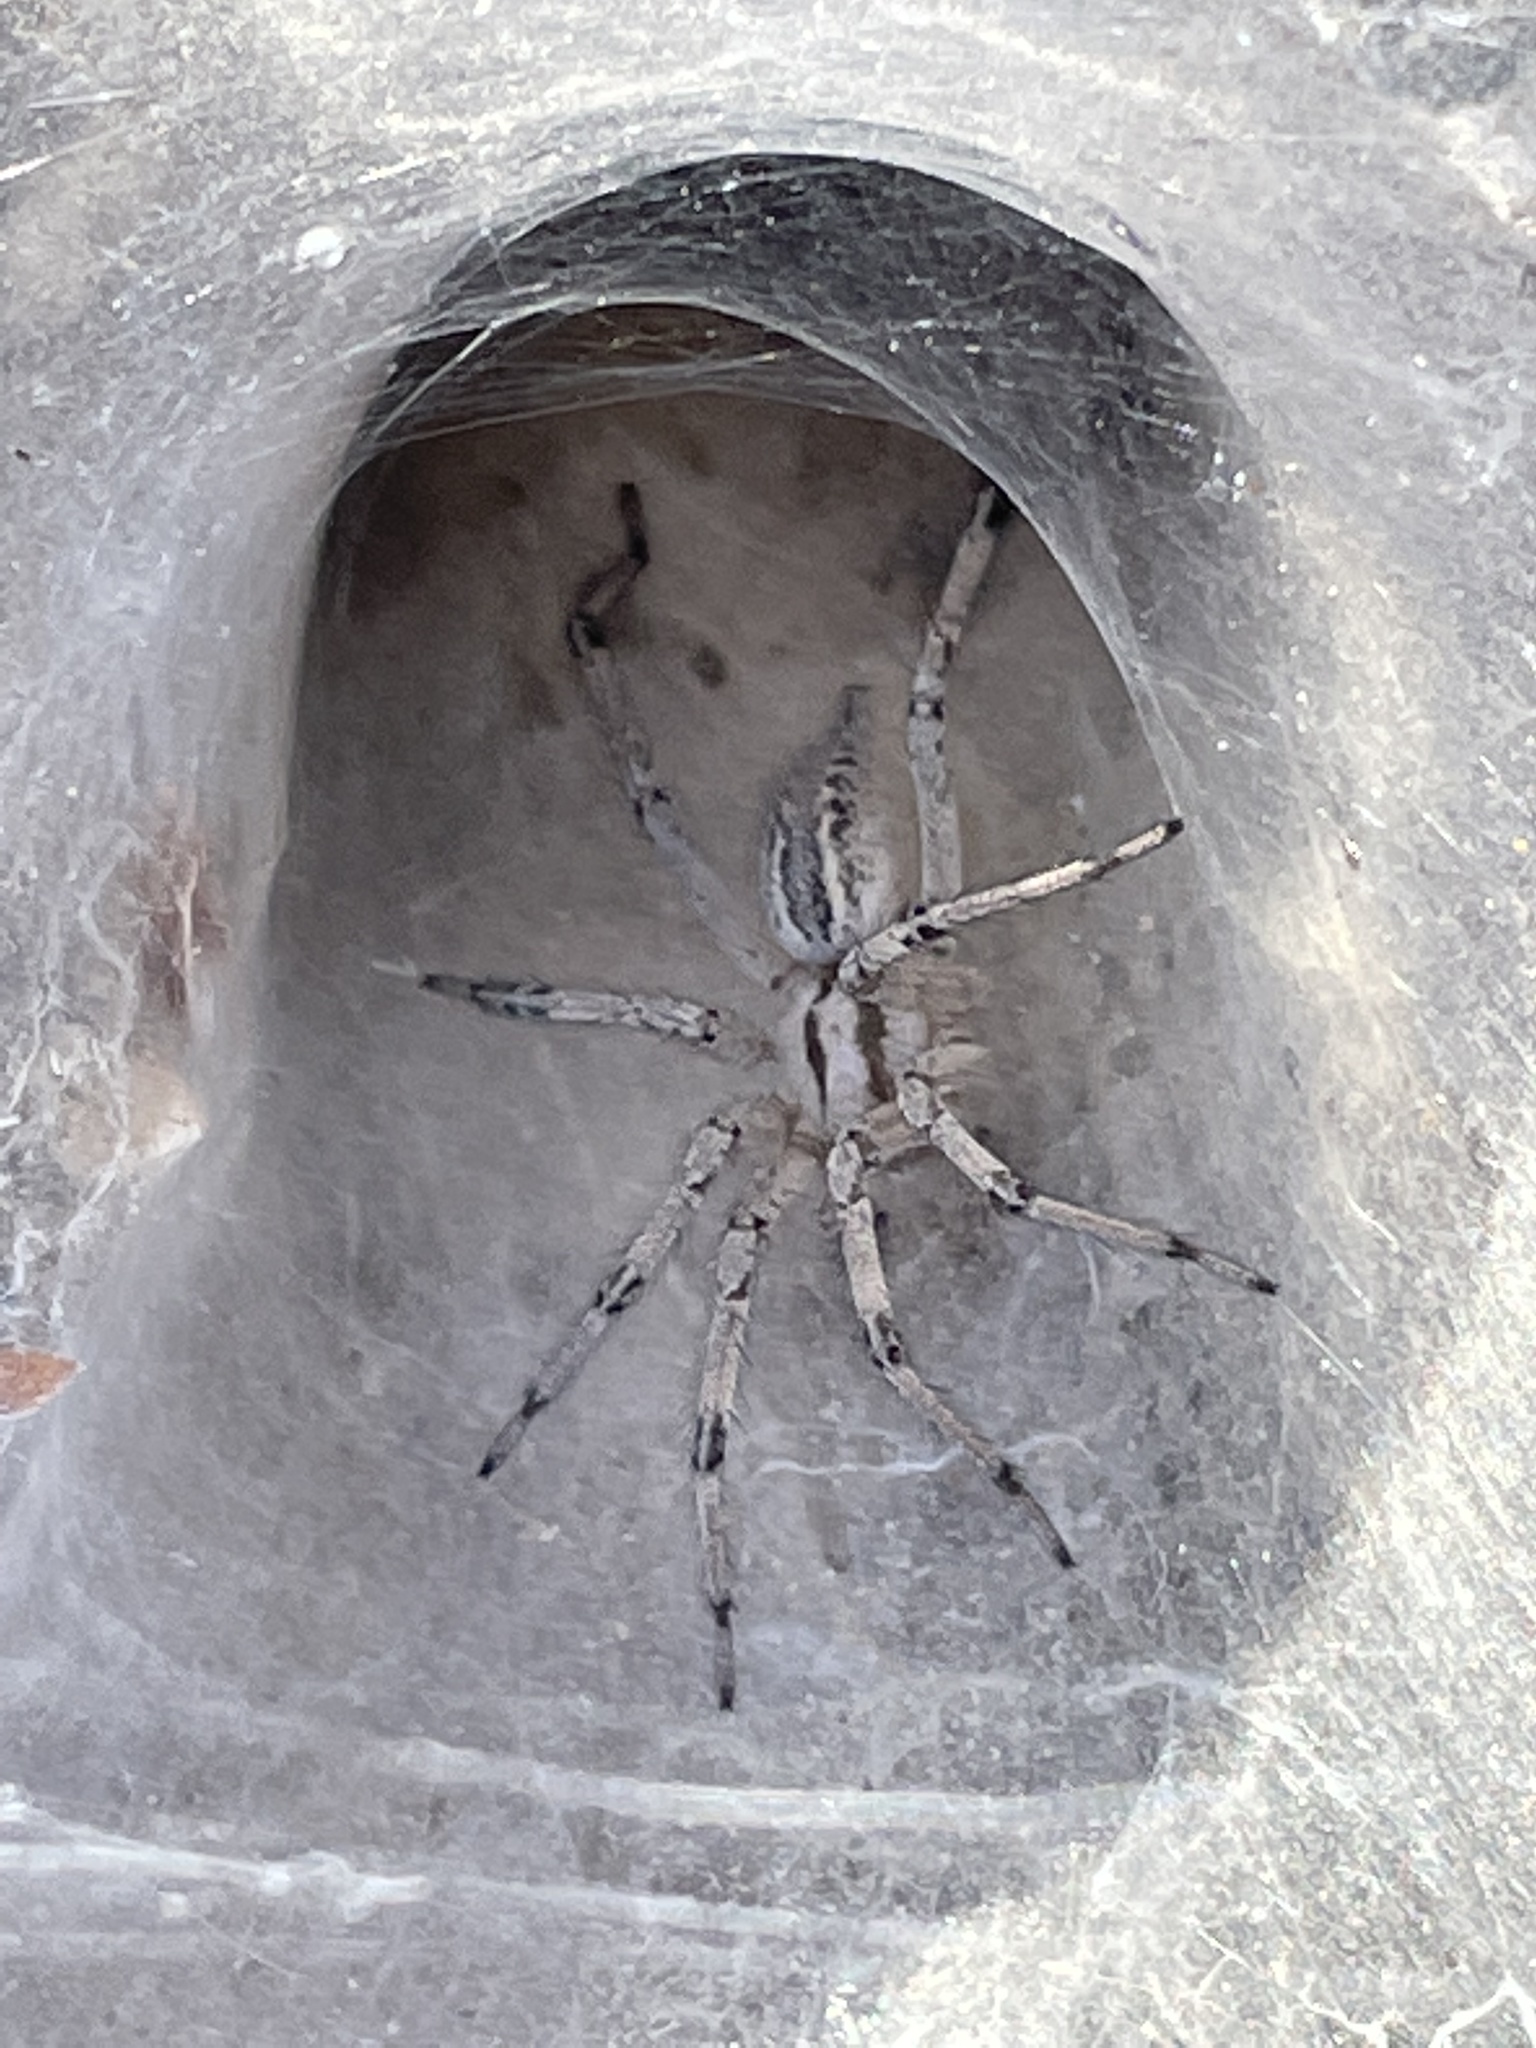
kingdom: Animalia
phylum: Arthropoda
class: Arachnida
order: Araneae
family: Agelenidae
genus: Agelenopsis
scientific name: Agelenopsis aperta
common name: Desert grass spider
